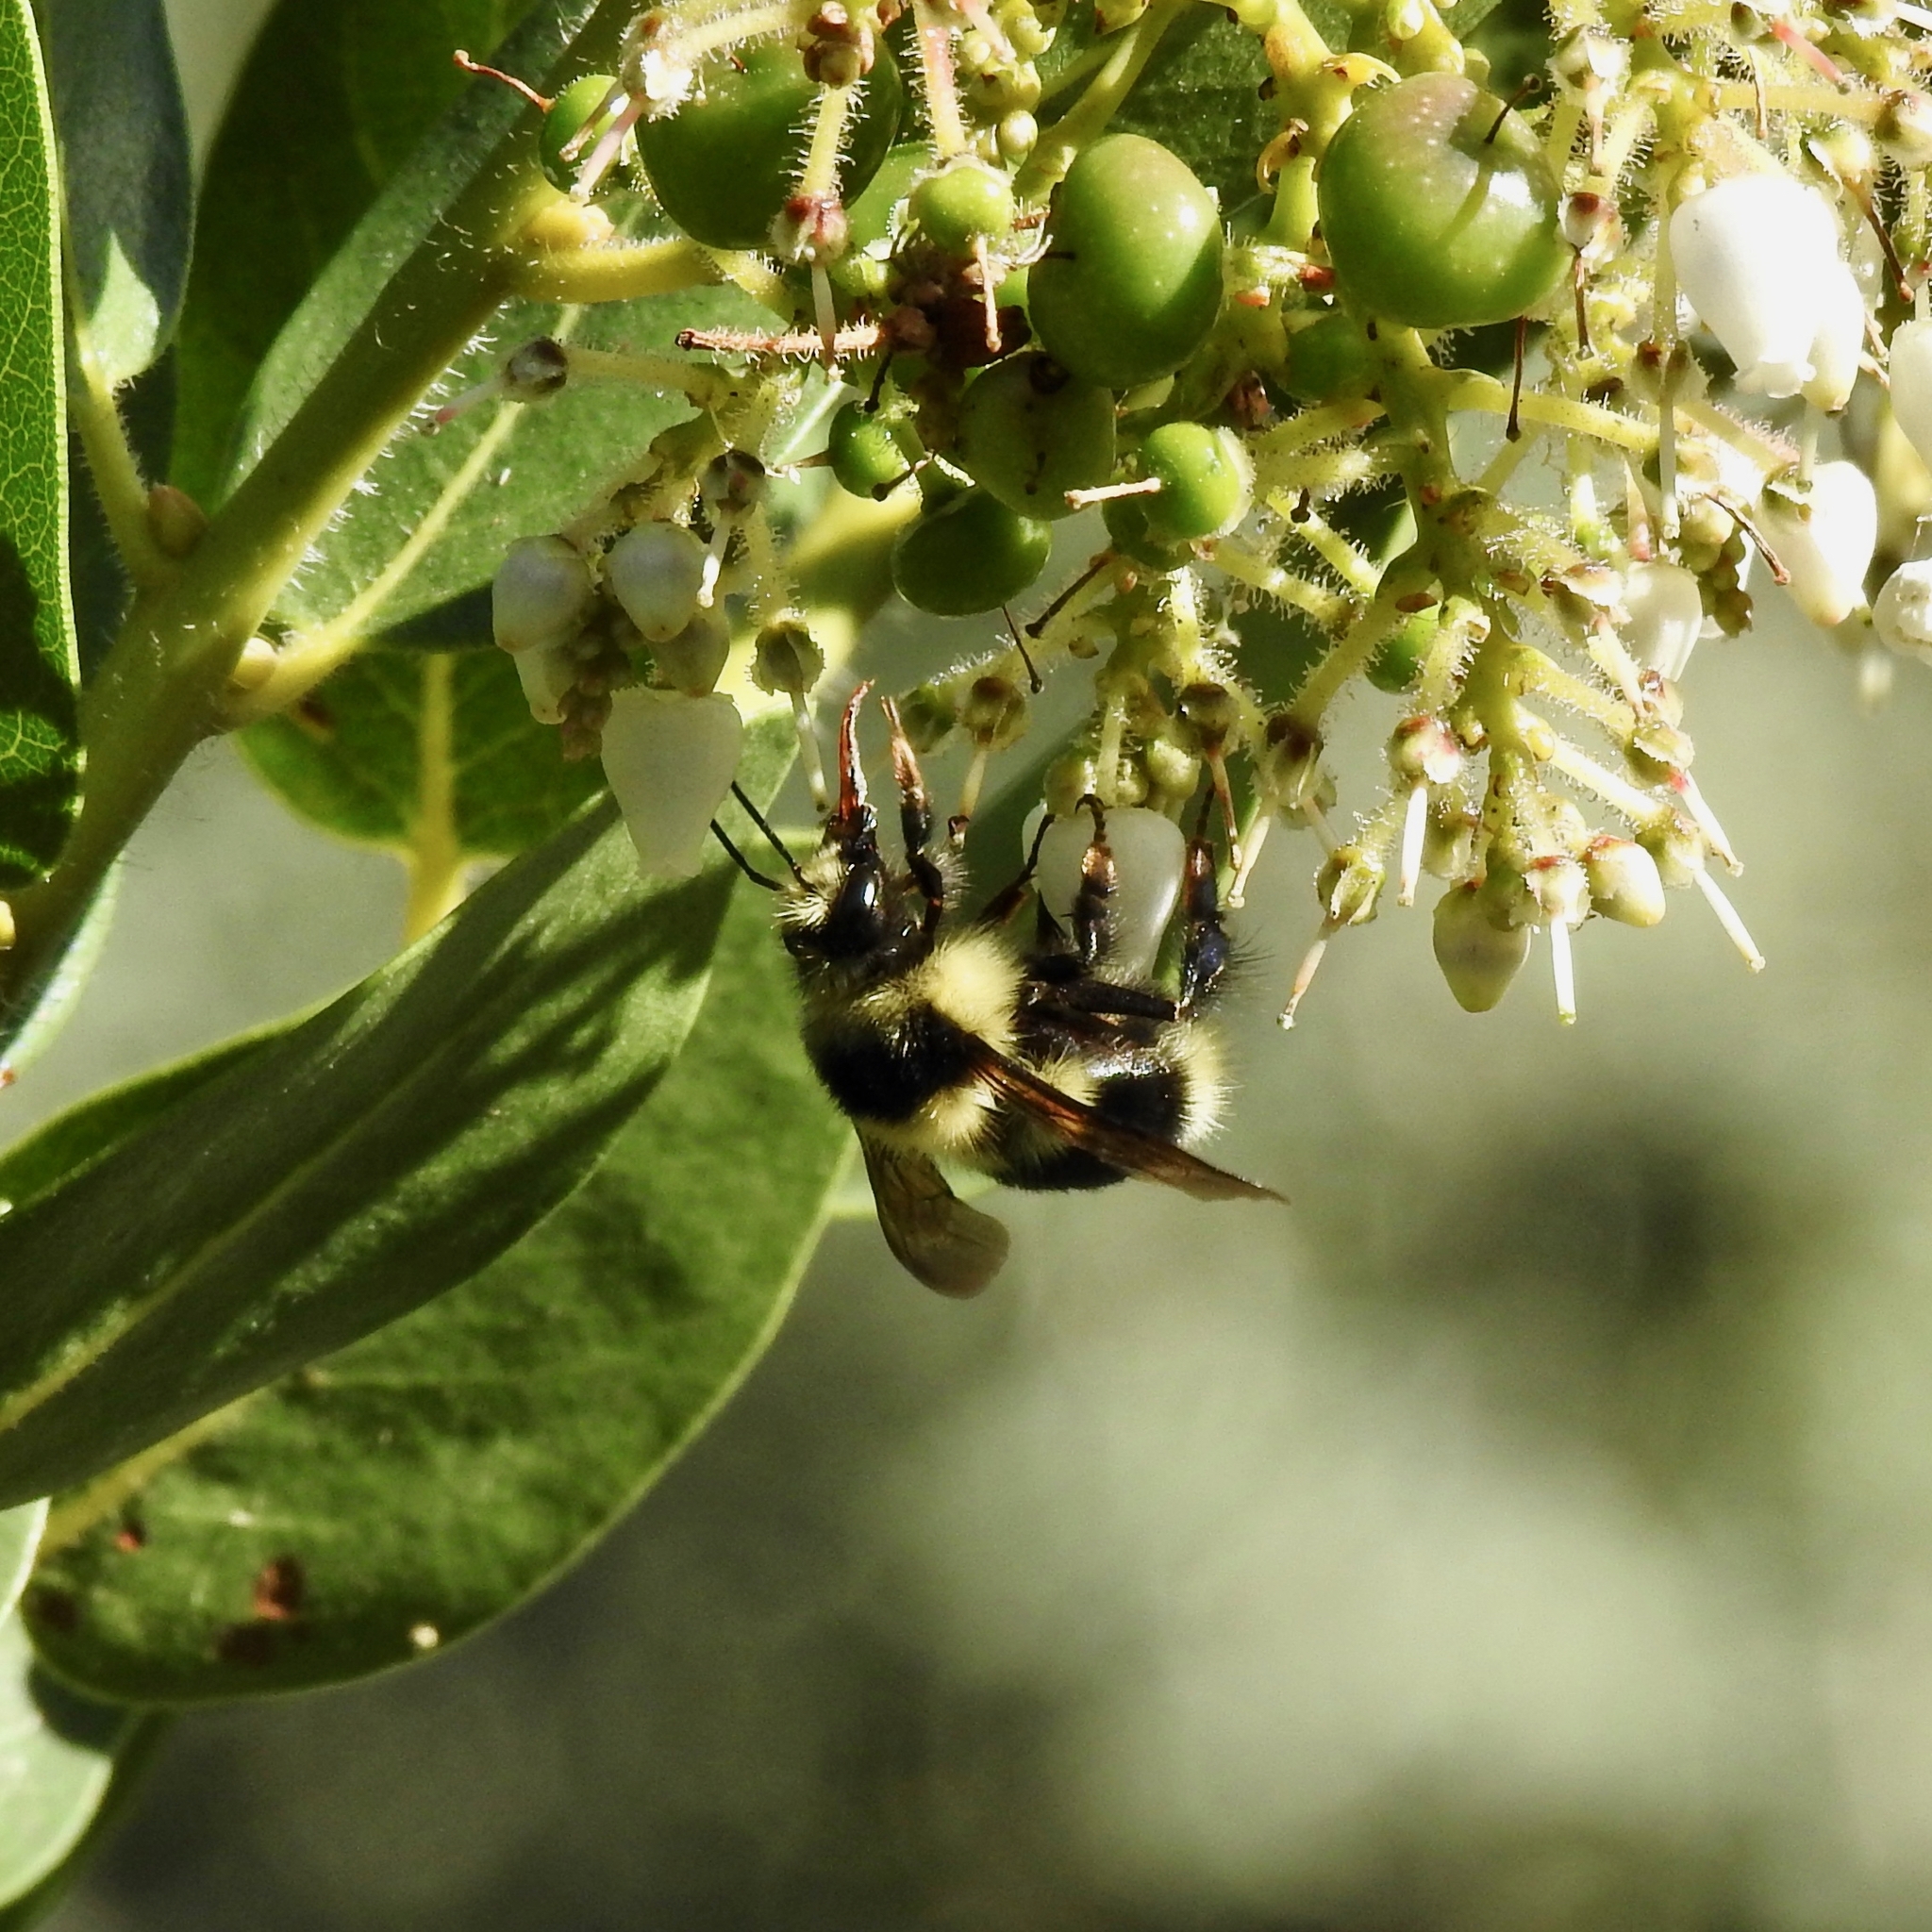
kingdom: Animalia
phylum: Arthropoda
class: Insecta
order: Hymenoptera
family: Apidae
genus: Bombus
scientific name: Bombus melanopygus
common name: Black tail bumble bee
